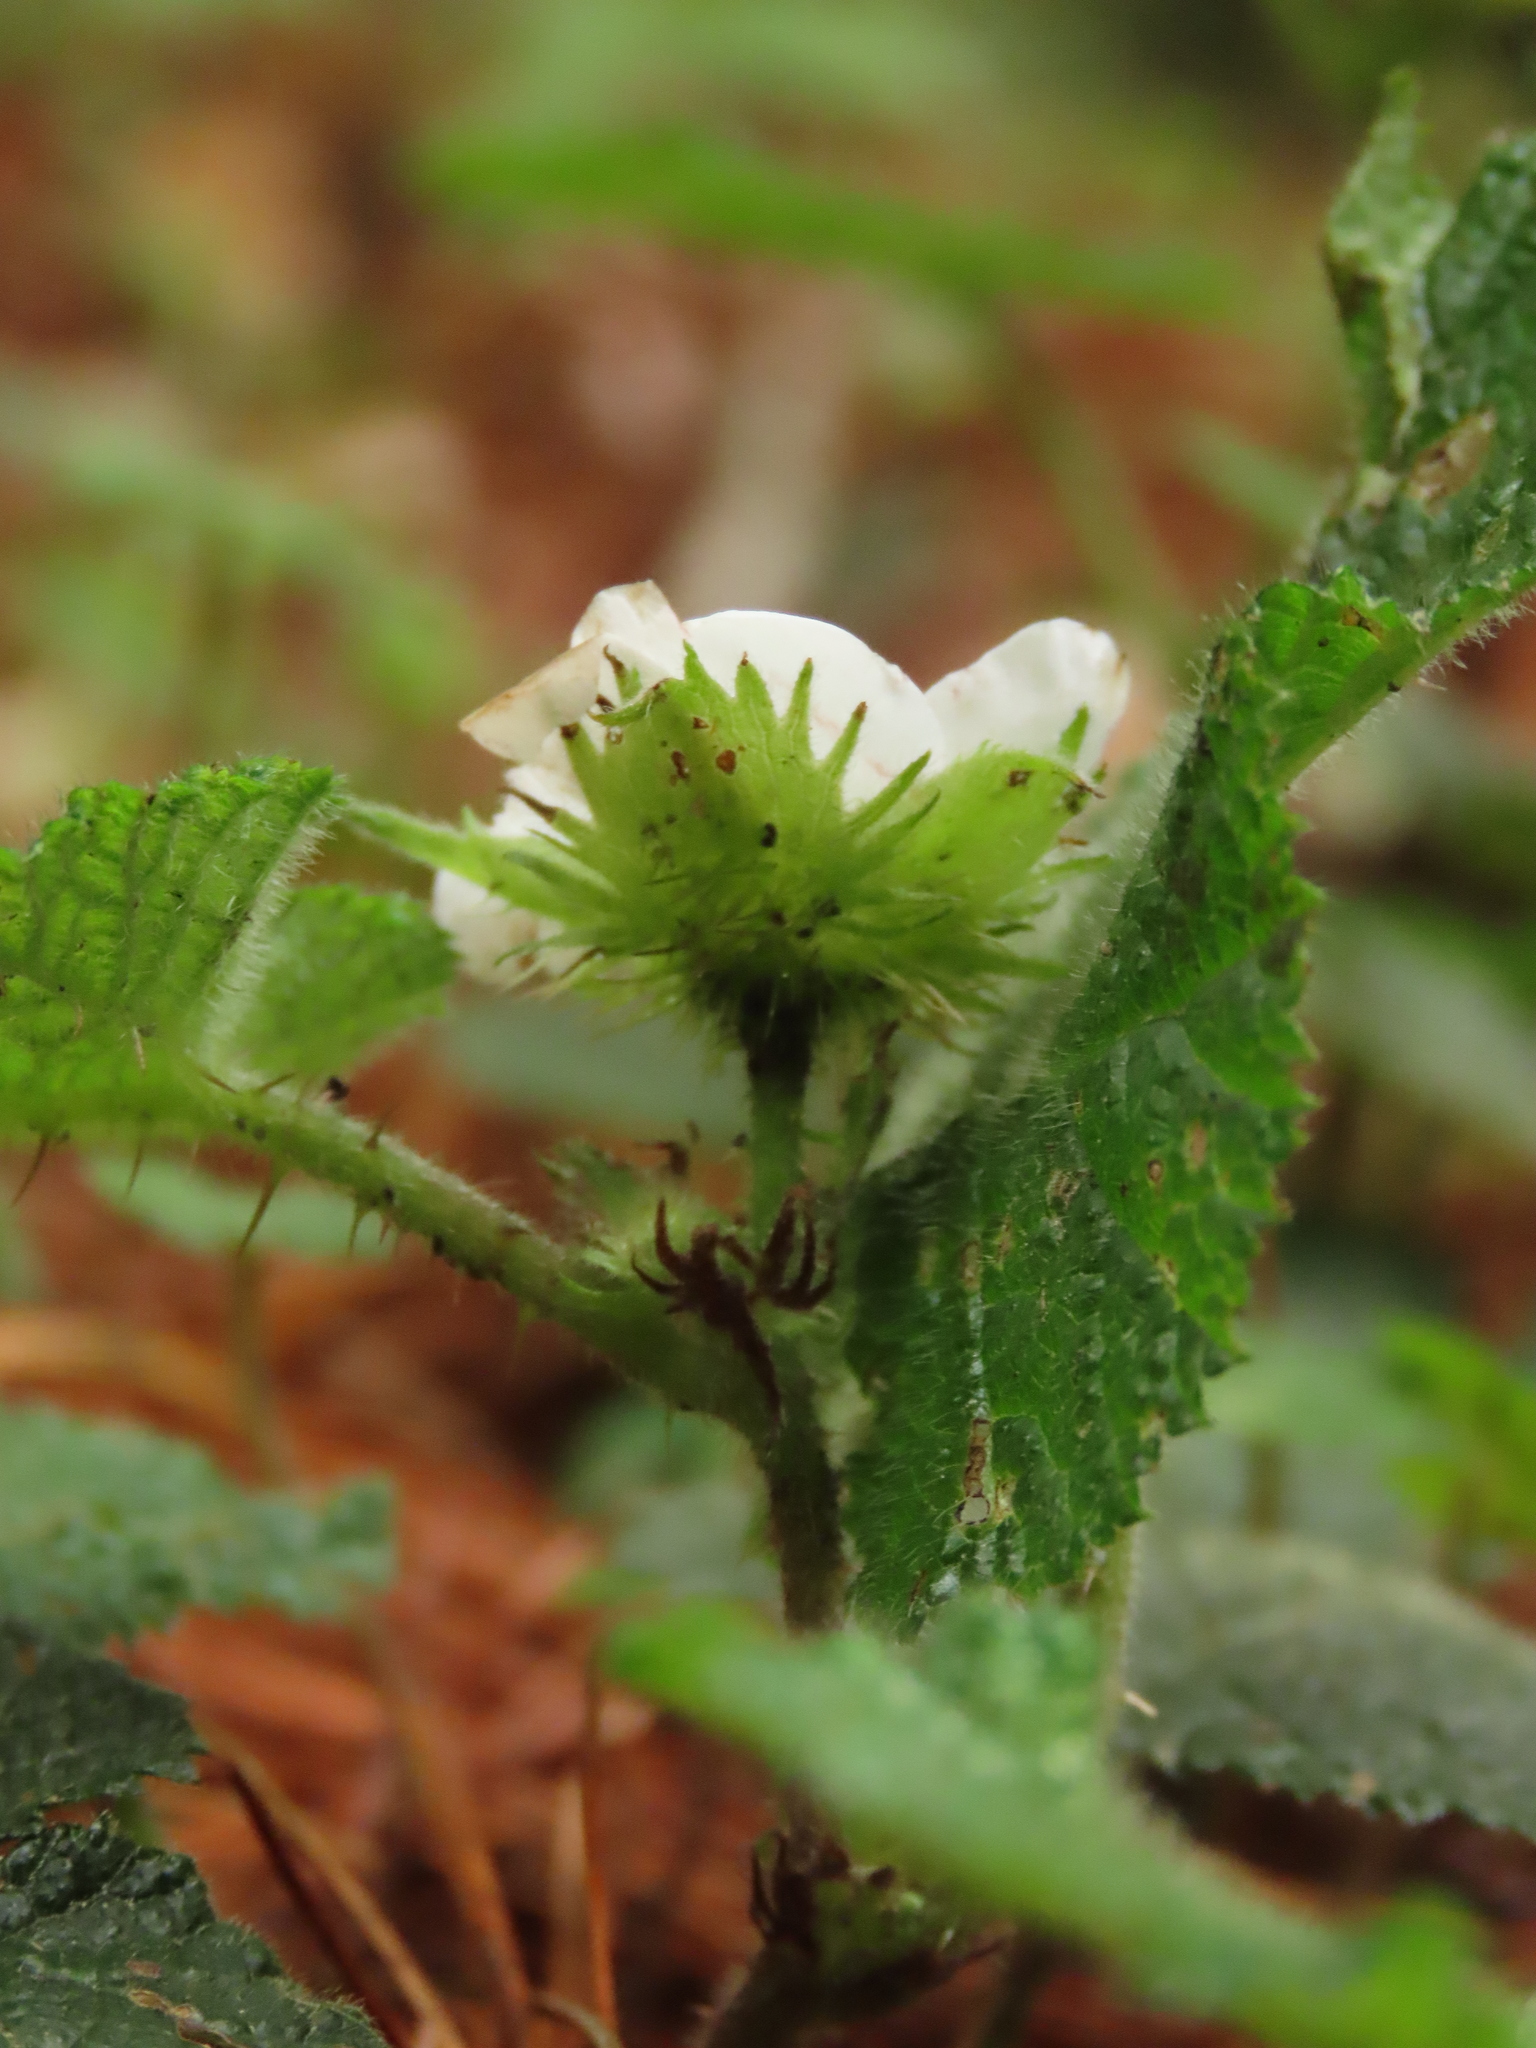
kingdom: Plantae
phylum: Tracheophyta
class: Magnoliopsida
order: Rosales
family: Rosaceae
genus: Rubus
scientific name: Rubus pectinellus
